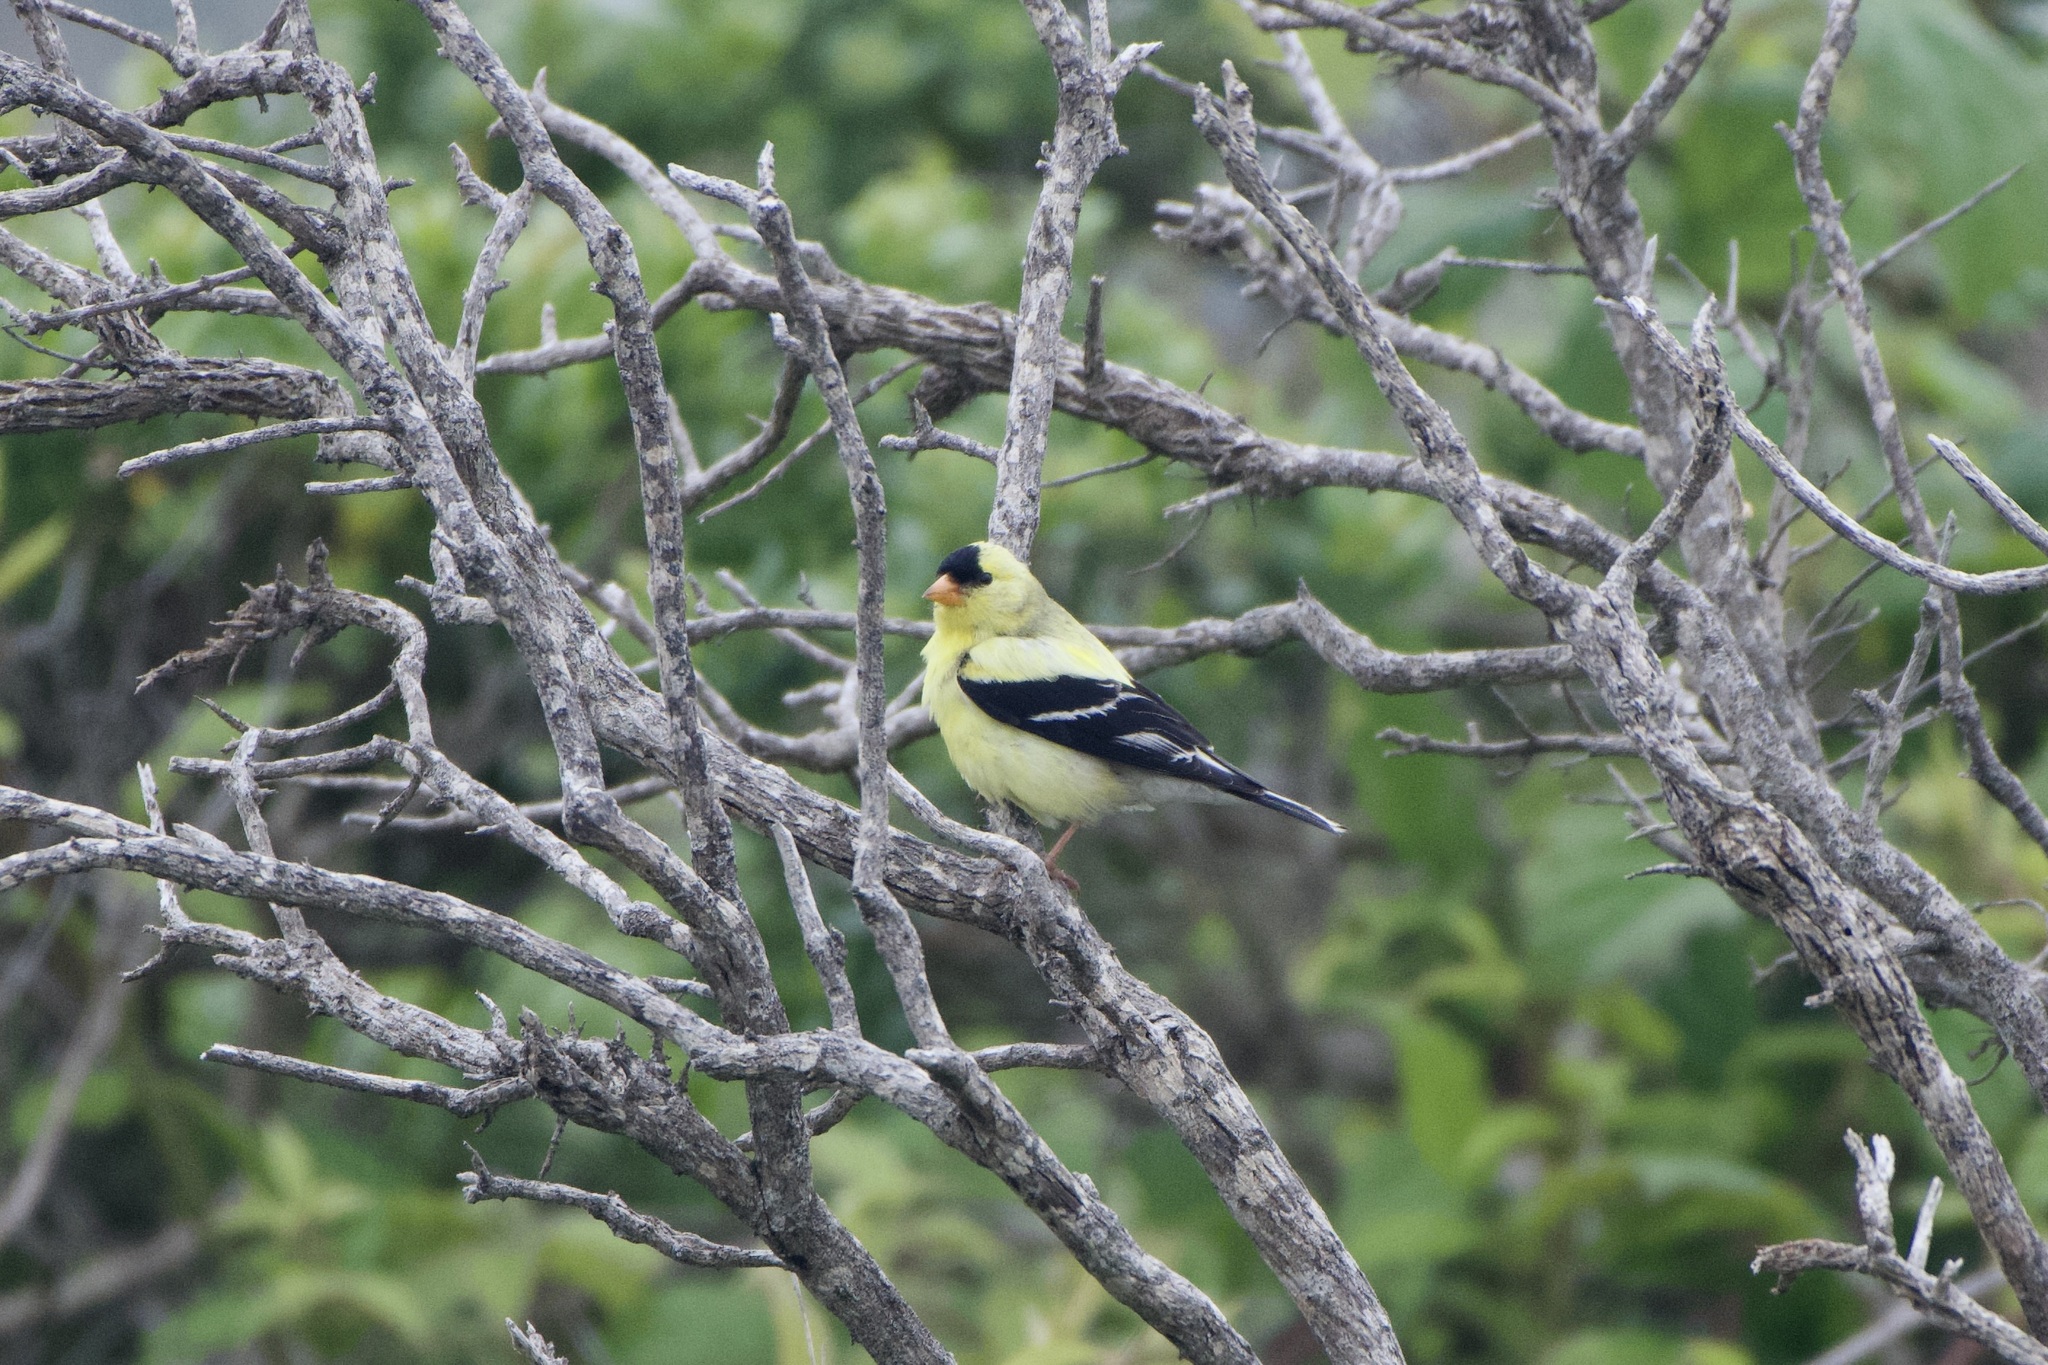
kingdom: Animalia
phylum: Chordata
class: Aves
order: Passeriformes
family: Fringillidae
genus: Spinus
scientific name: Spinus tristis
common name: American goldfinch
